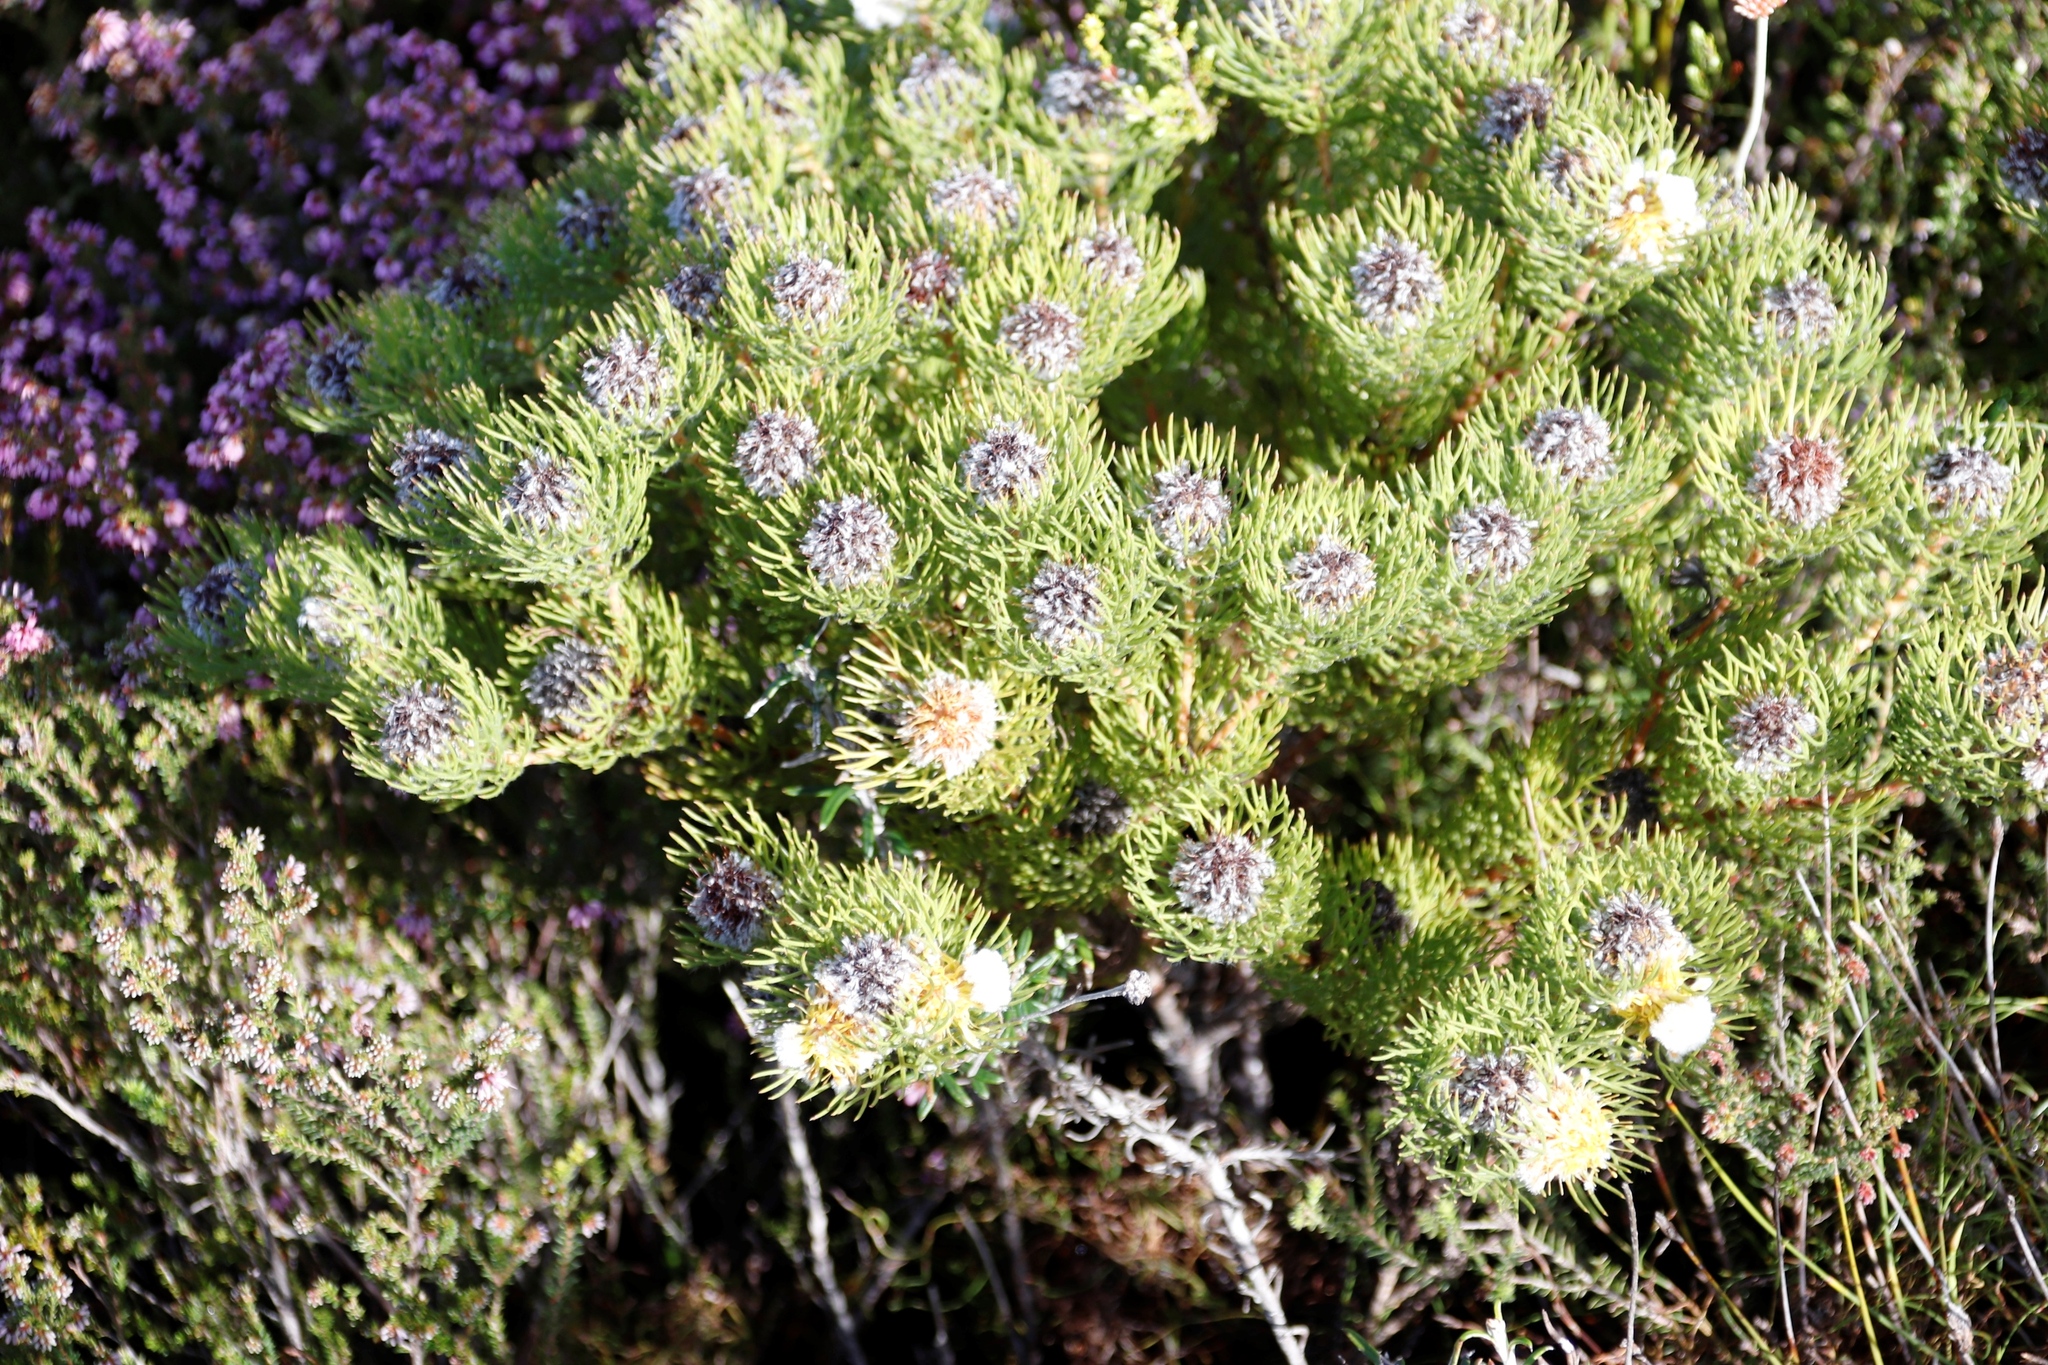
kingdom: Plantae
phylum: Tracheophyta
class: Magnoliopsida
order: Proteales
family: Proteaceae
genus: Serruria
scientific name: Serruria villosa
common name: Golden spiderhead
